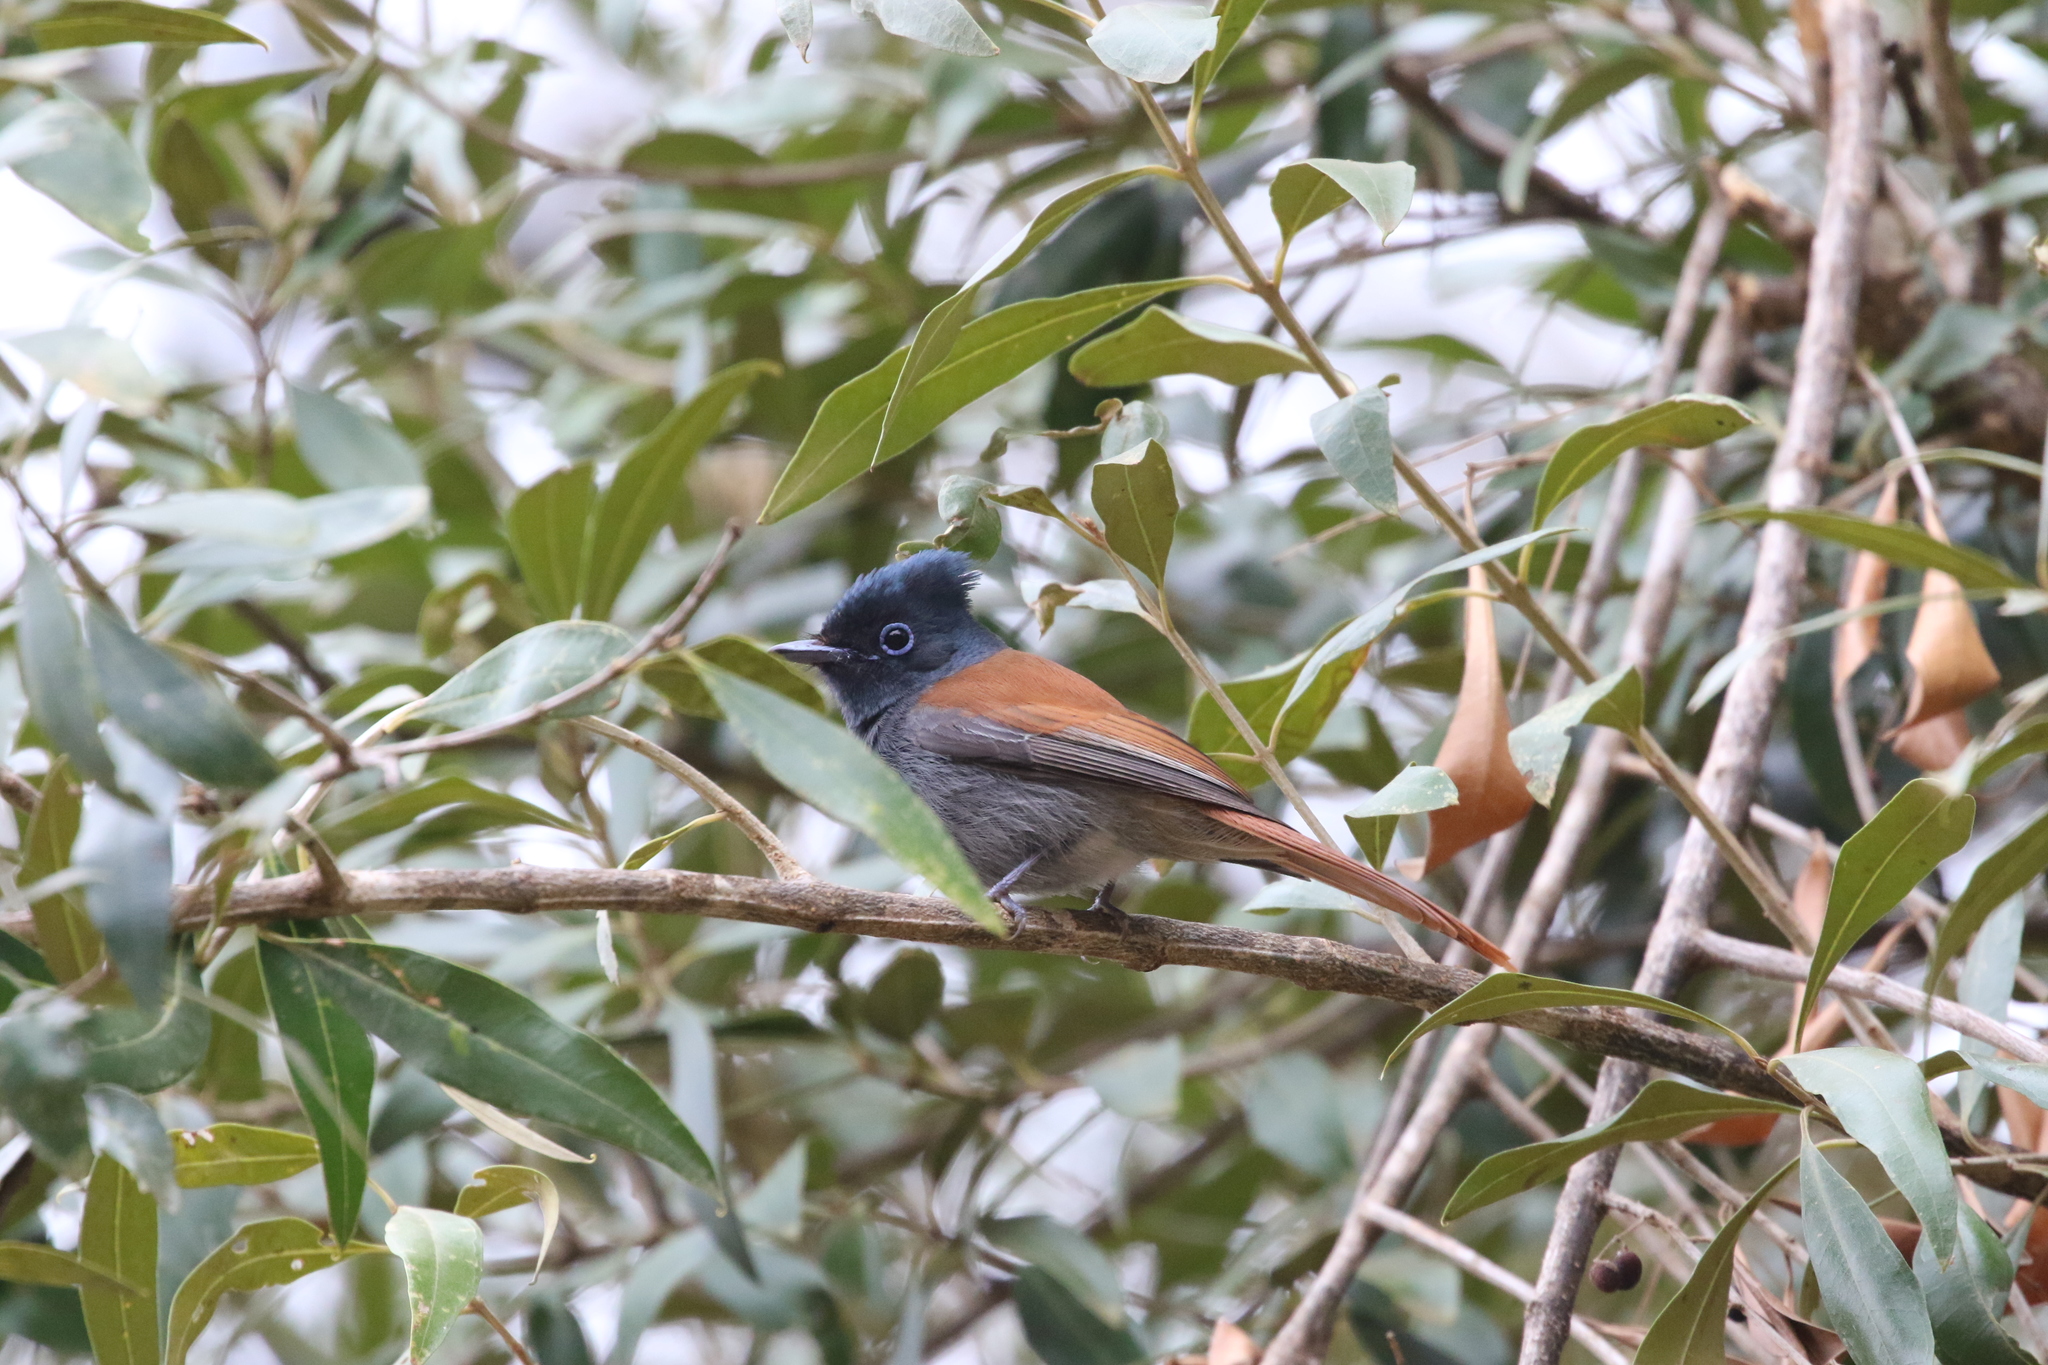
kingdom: Animalia
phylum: Chordata
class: Aves
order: Passeriformes
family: Monarchidae
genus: Terpsiphone
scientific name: Terpsiphone viridis
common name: African paradise flycatcher
